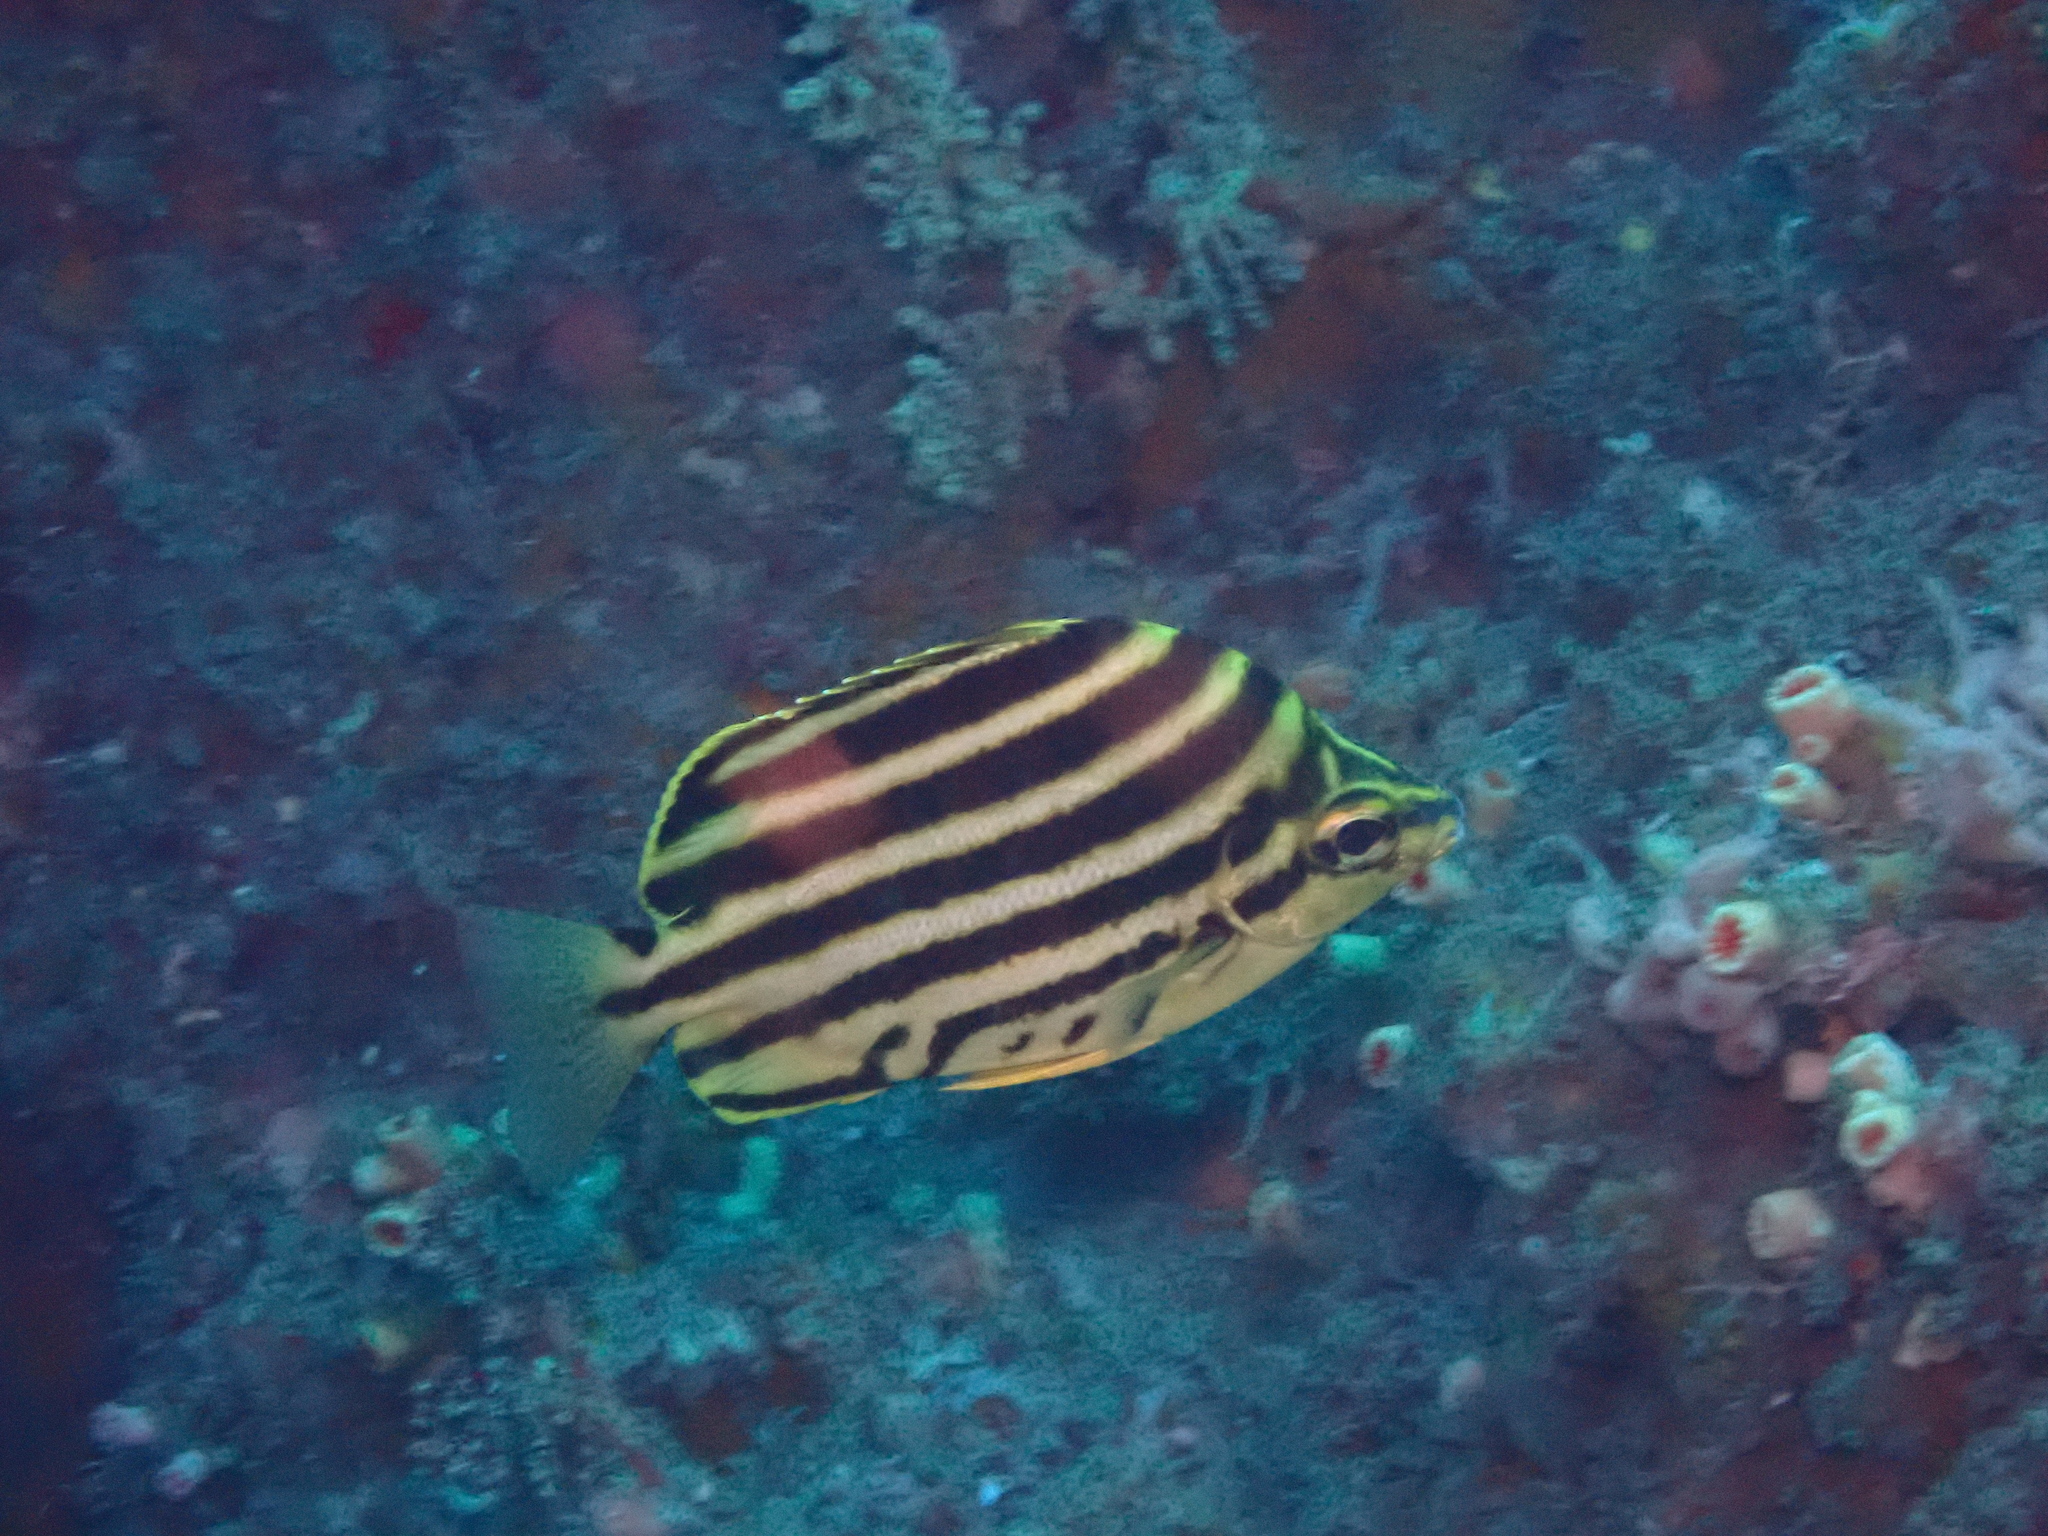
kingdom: Animalia
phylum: Chordata
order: Perciformes
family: Kyphosidae
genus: Microcanthus
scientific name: Microcanthus strigatus
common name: Stripey
